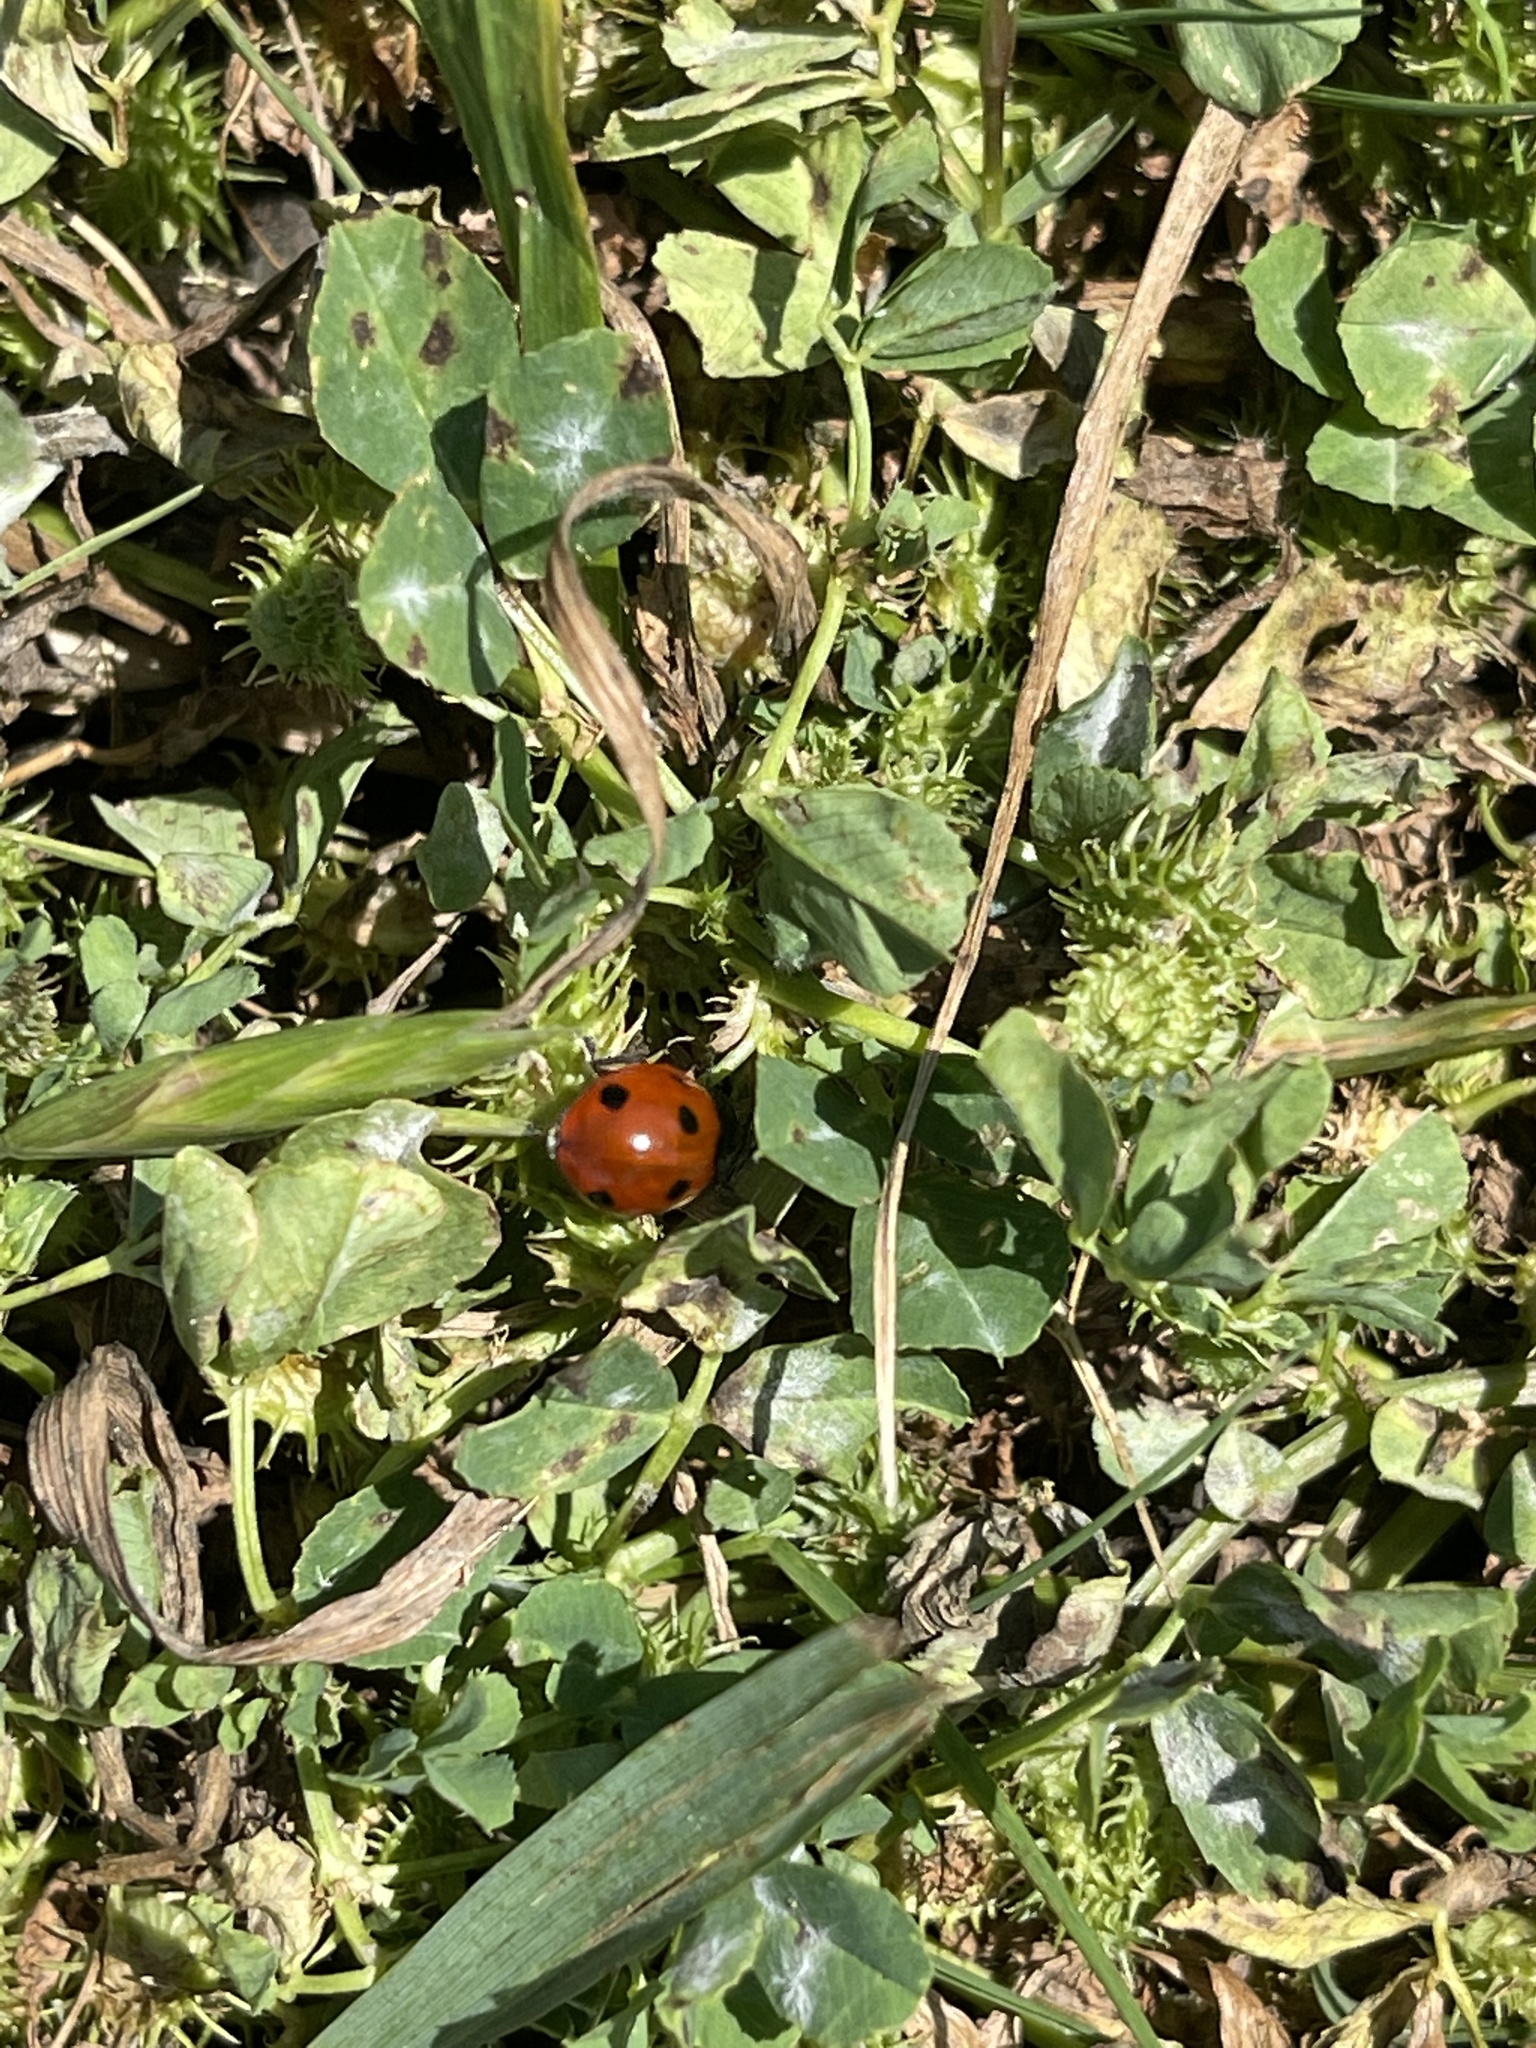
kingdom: Animalia
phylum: Arthropoda
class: Insecta
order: Coleoptera
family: Coccinellidae
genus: Coccinella
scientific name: Coccinella septempunctata
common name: Sevenspotted lady beetle
